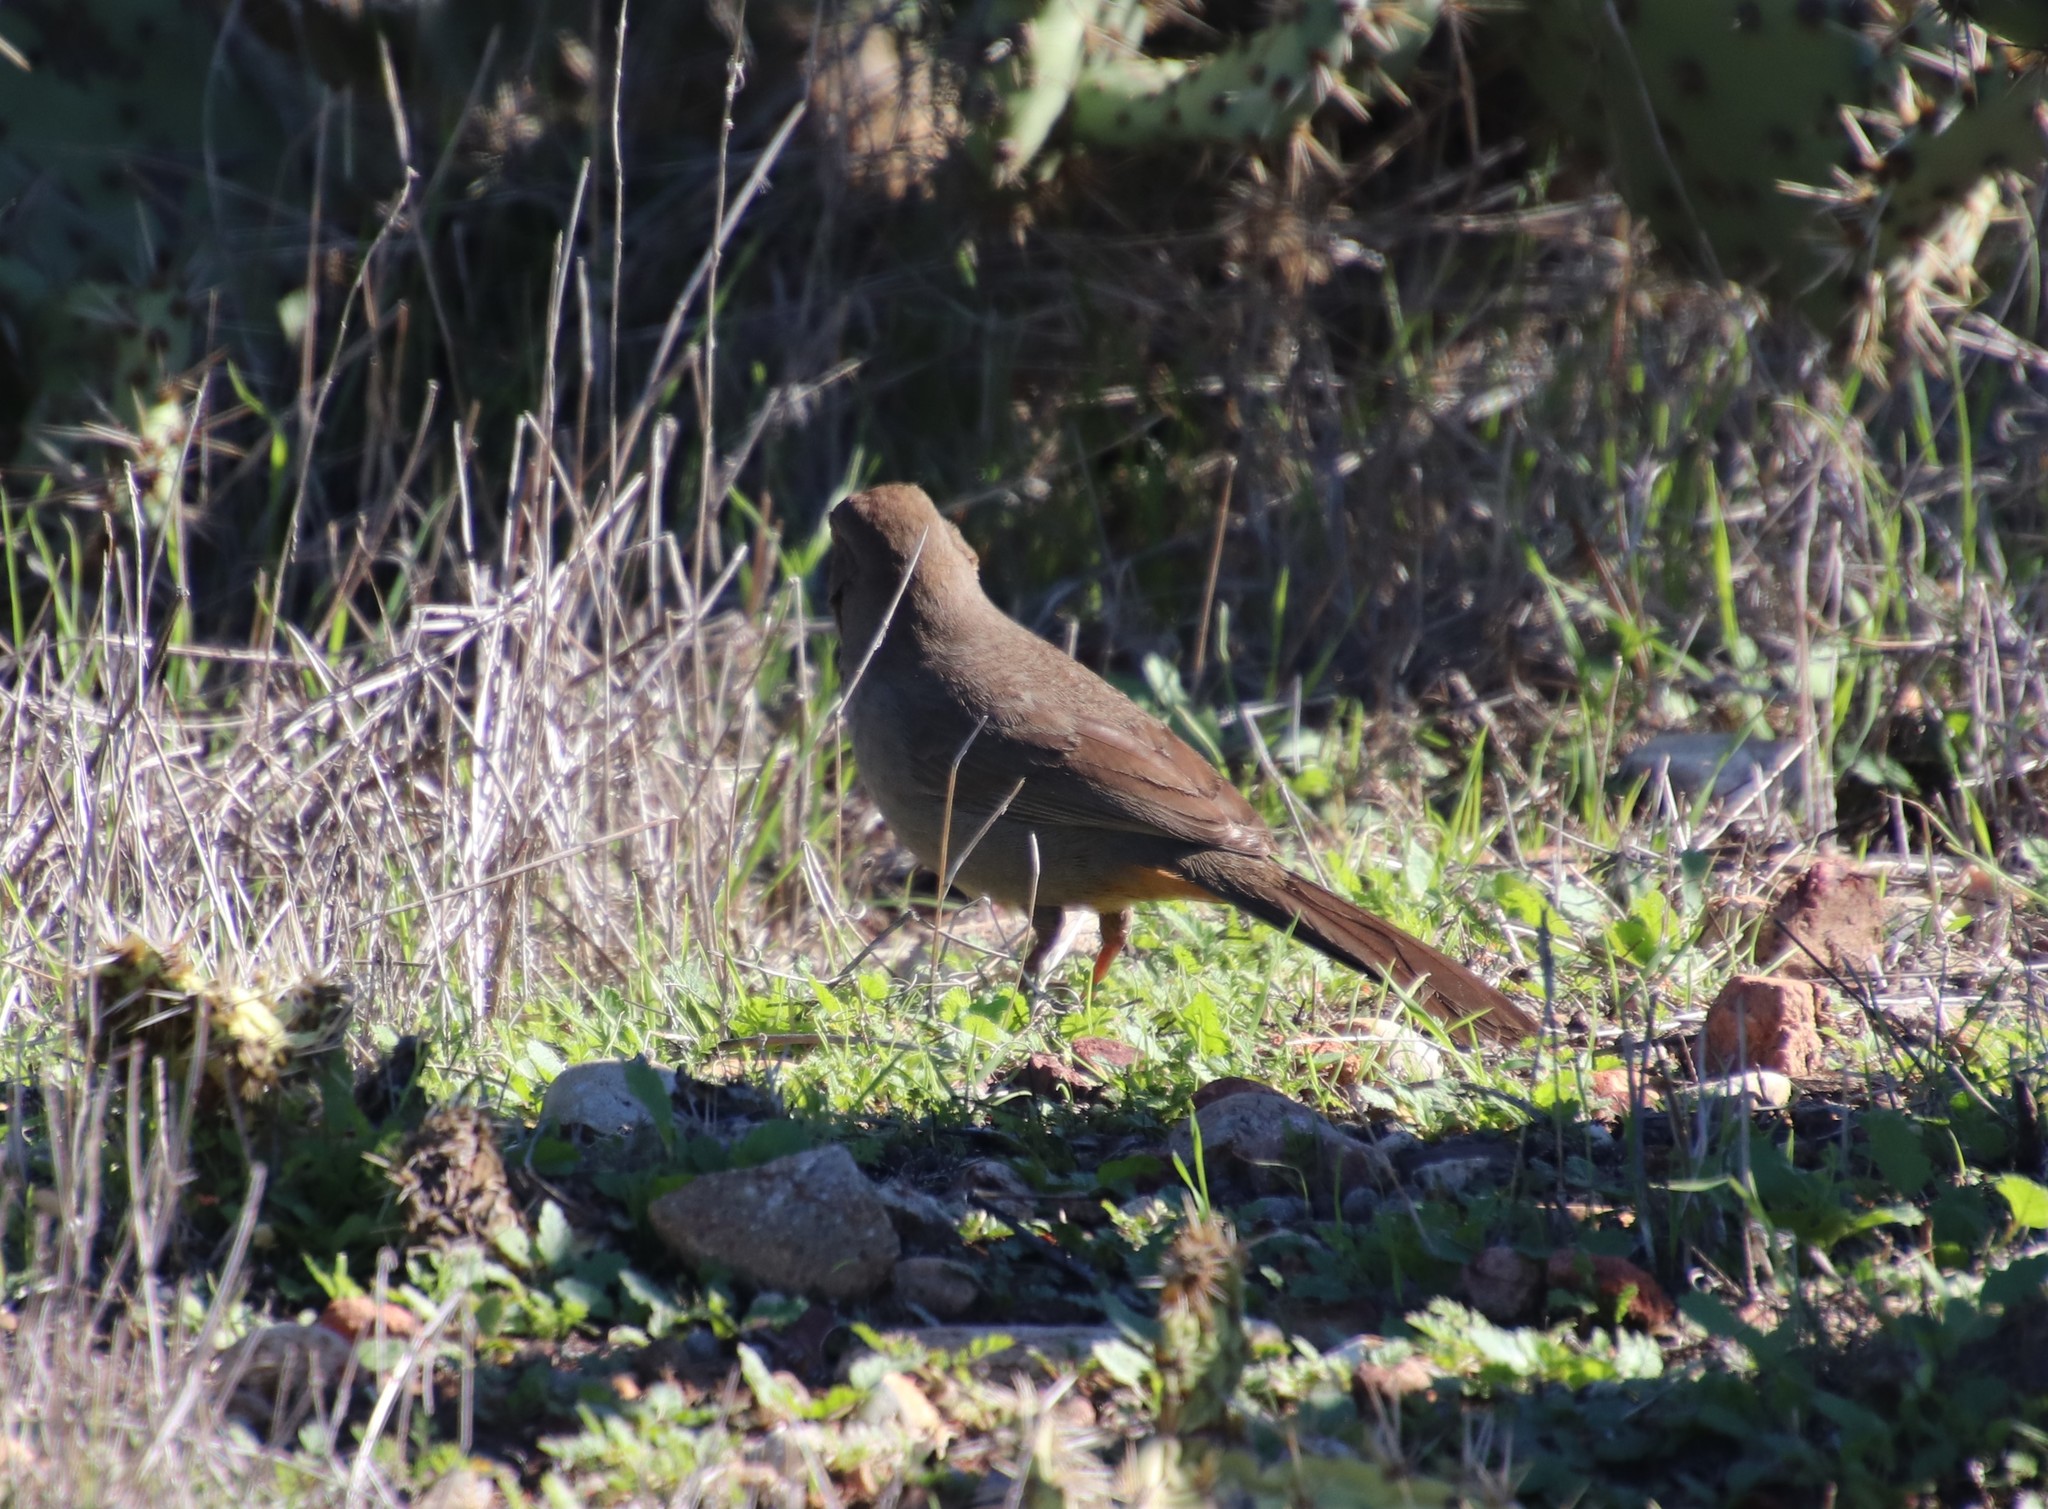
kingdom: Animalia
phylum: Chordata
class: Aves
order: Passeriformes
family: Passerellidae
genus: Melozone
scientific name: Melozone crissalis
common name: California towhee
